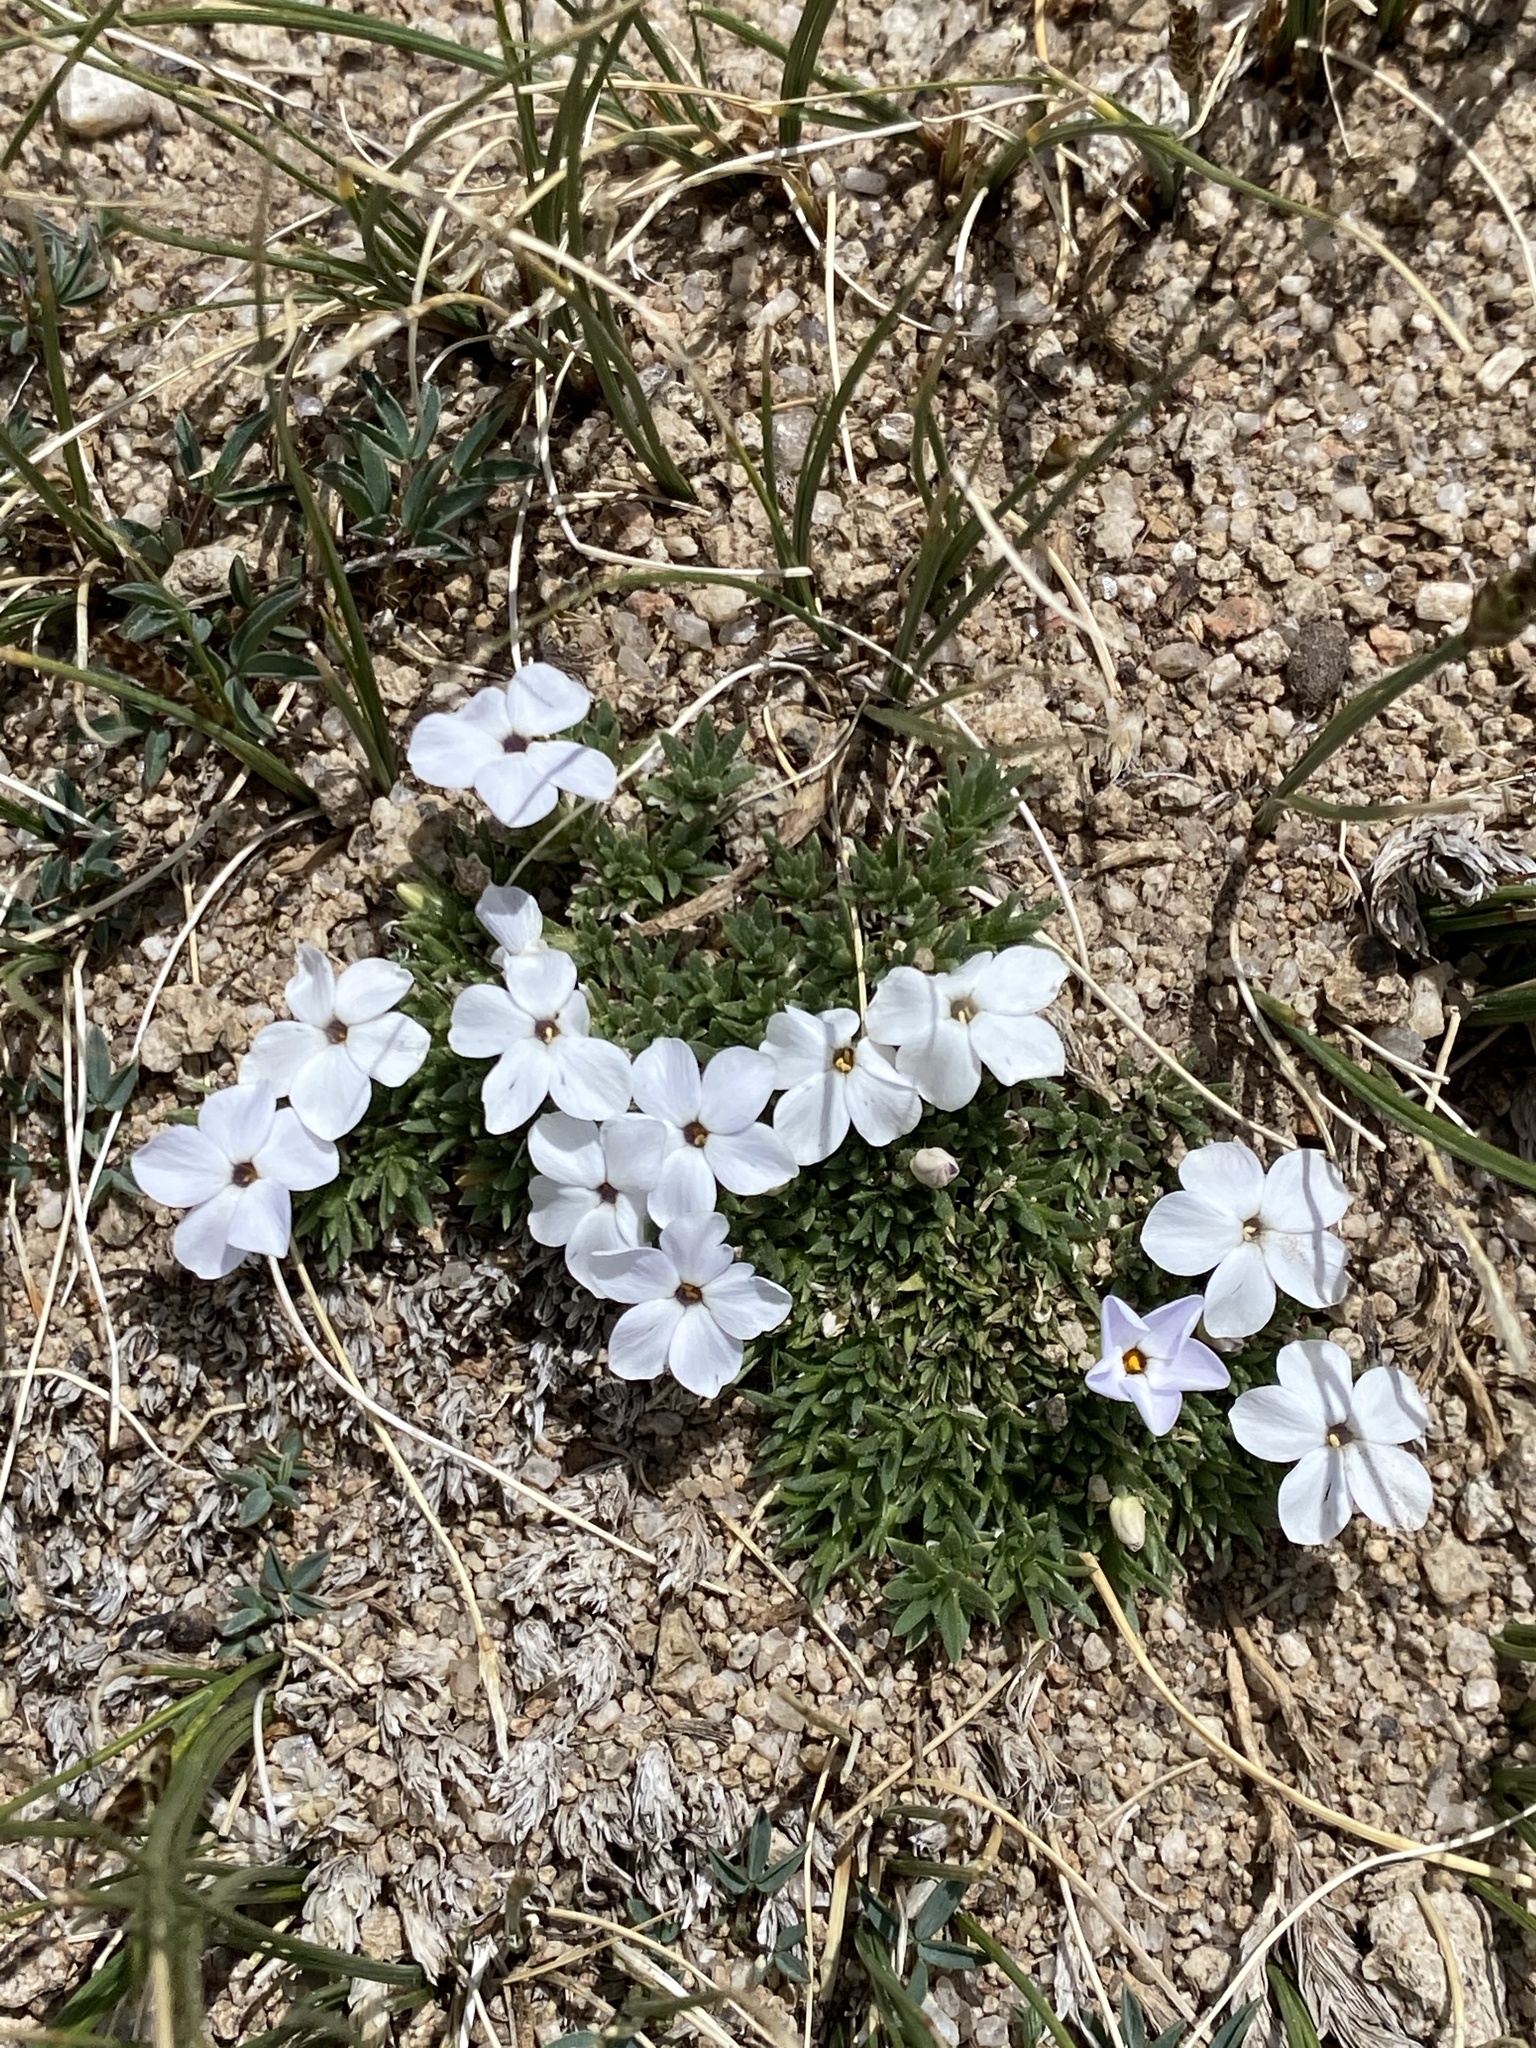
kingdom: Plantae
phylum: Tracheophyta
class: Magnoliopsida
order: Ericales
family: Polemoniaceae
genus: Phlox
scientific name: Phlox condensata
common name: Compact phlox
